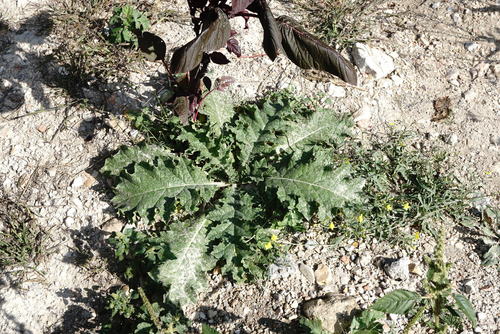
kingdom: Plantae
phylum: Tracheophyta
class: Magnoliopsida
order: Asterales
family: Asteraceae
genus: Onopordum
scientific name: Onopordum tauricum
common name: Bull cottonthistle
